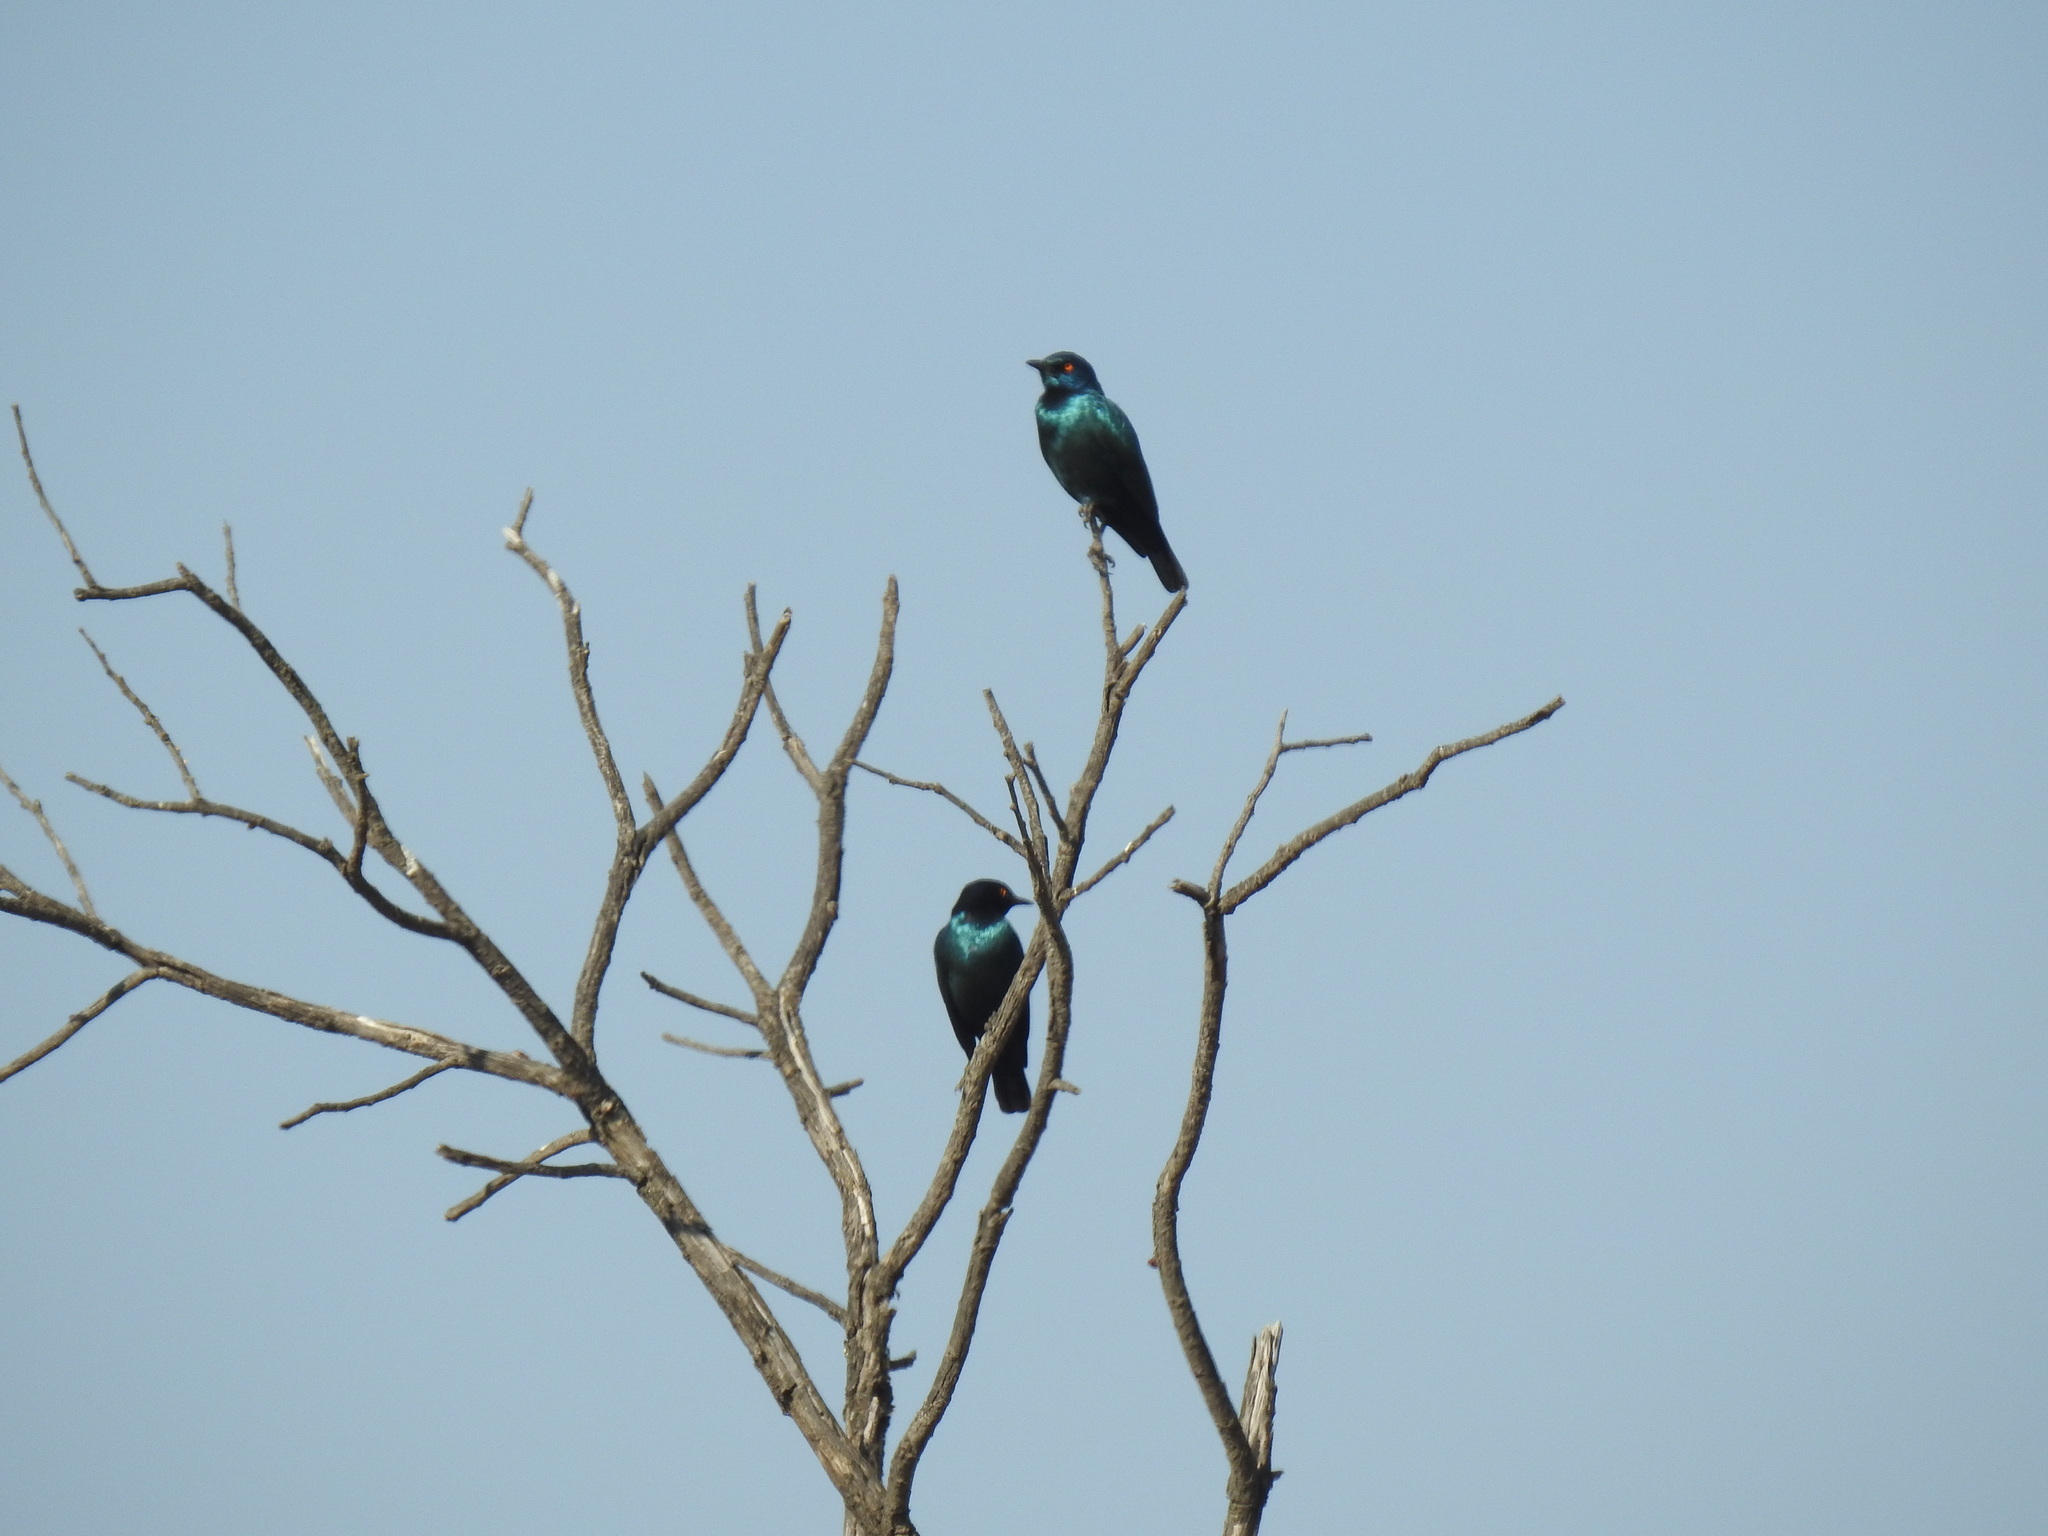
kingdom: Animalia
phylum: Chordata
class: Aves
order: Passeriformes
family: Sturnidae
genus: Lamprotornis
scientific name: Lamprotornis nitens
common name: Cape starling
